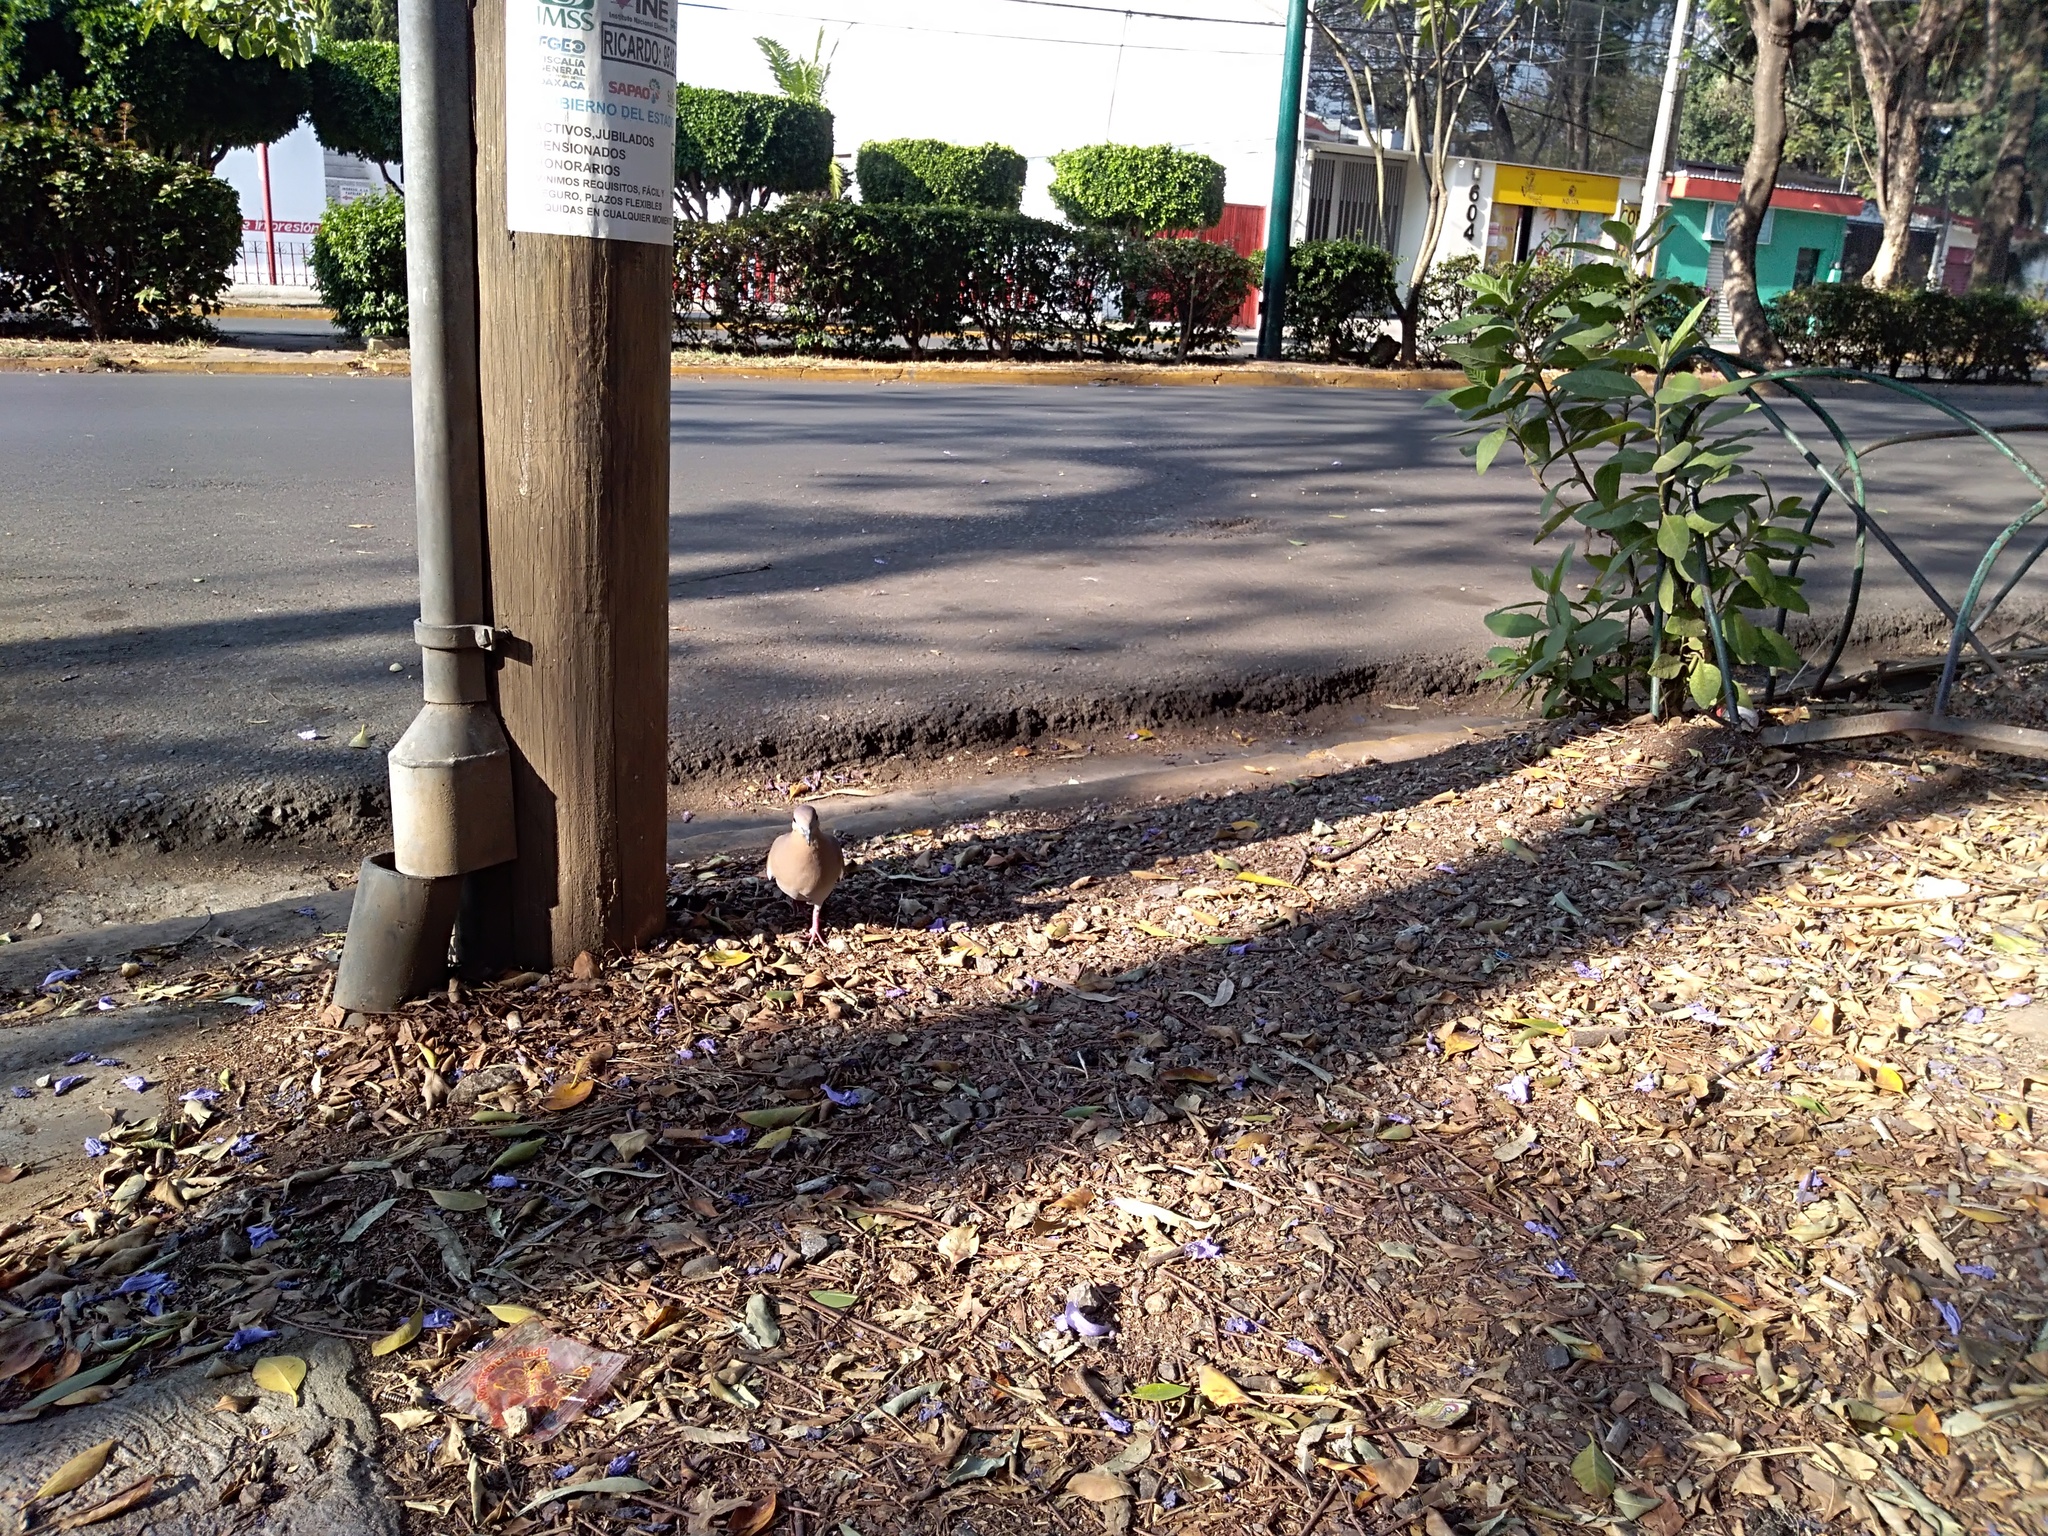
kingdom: Animalia
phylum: Chordata
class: Aves
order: Columbiformes
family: Columbidae
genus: Zenaida
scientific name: Zenaida asiatica
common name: White-winged dove
